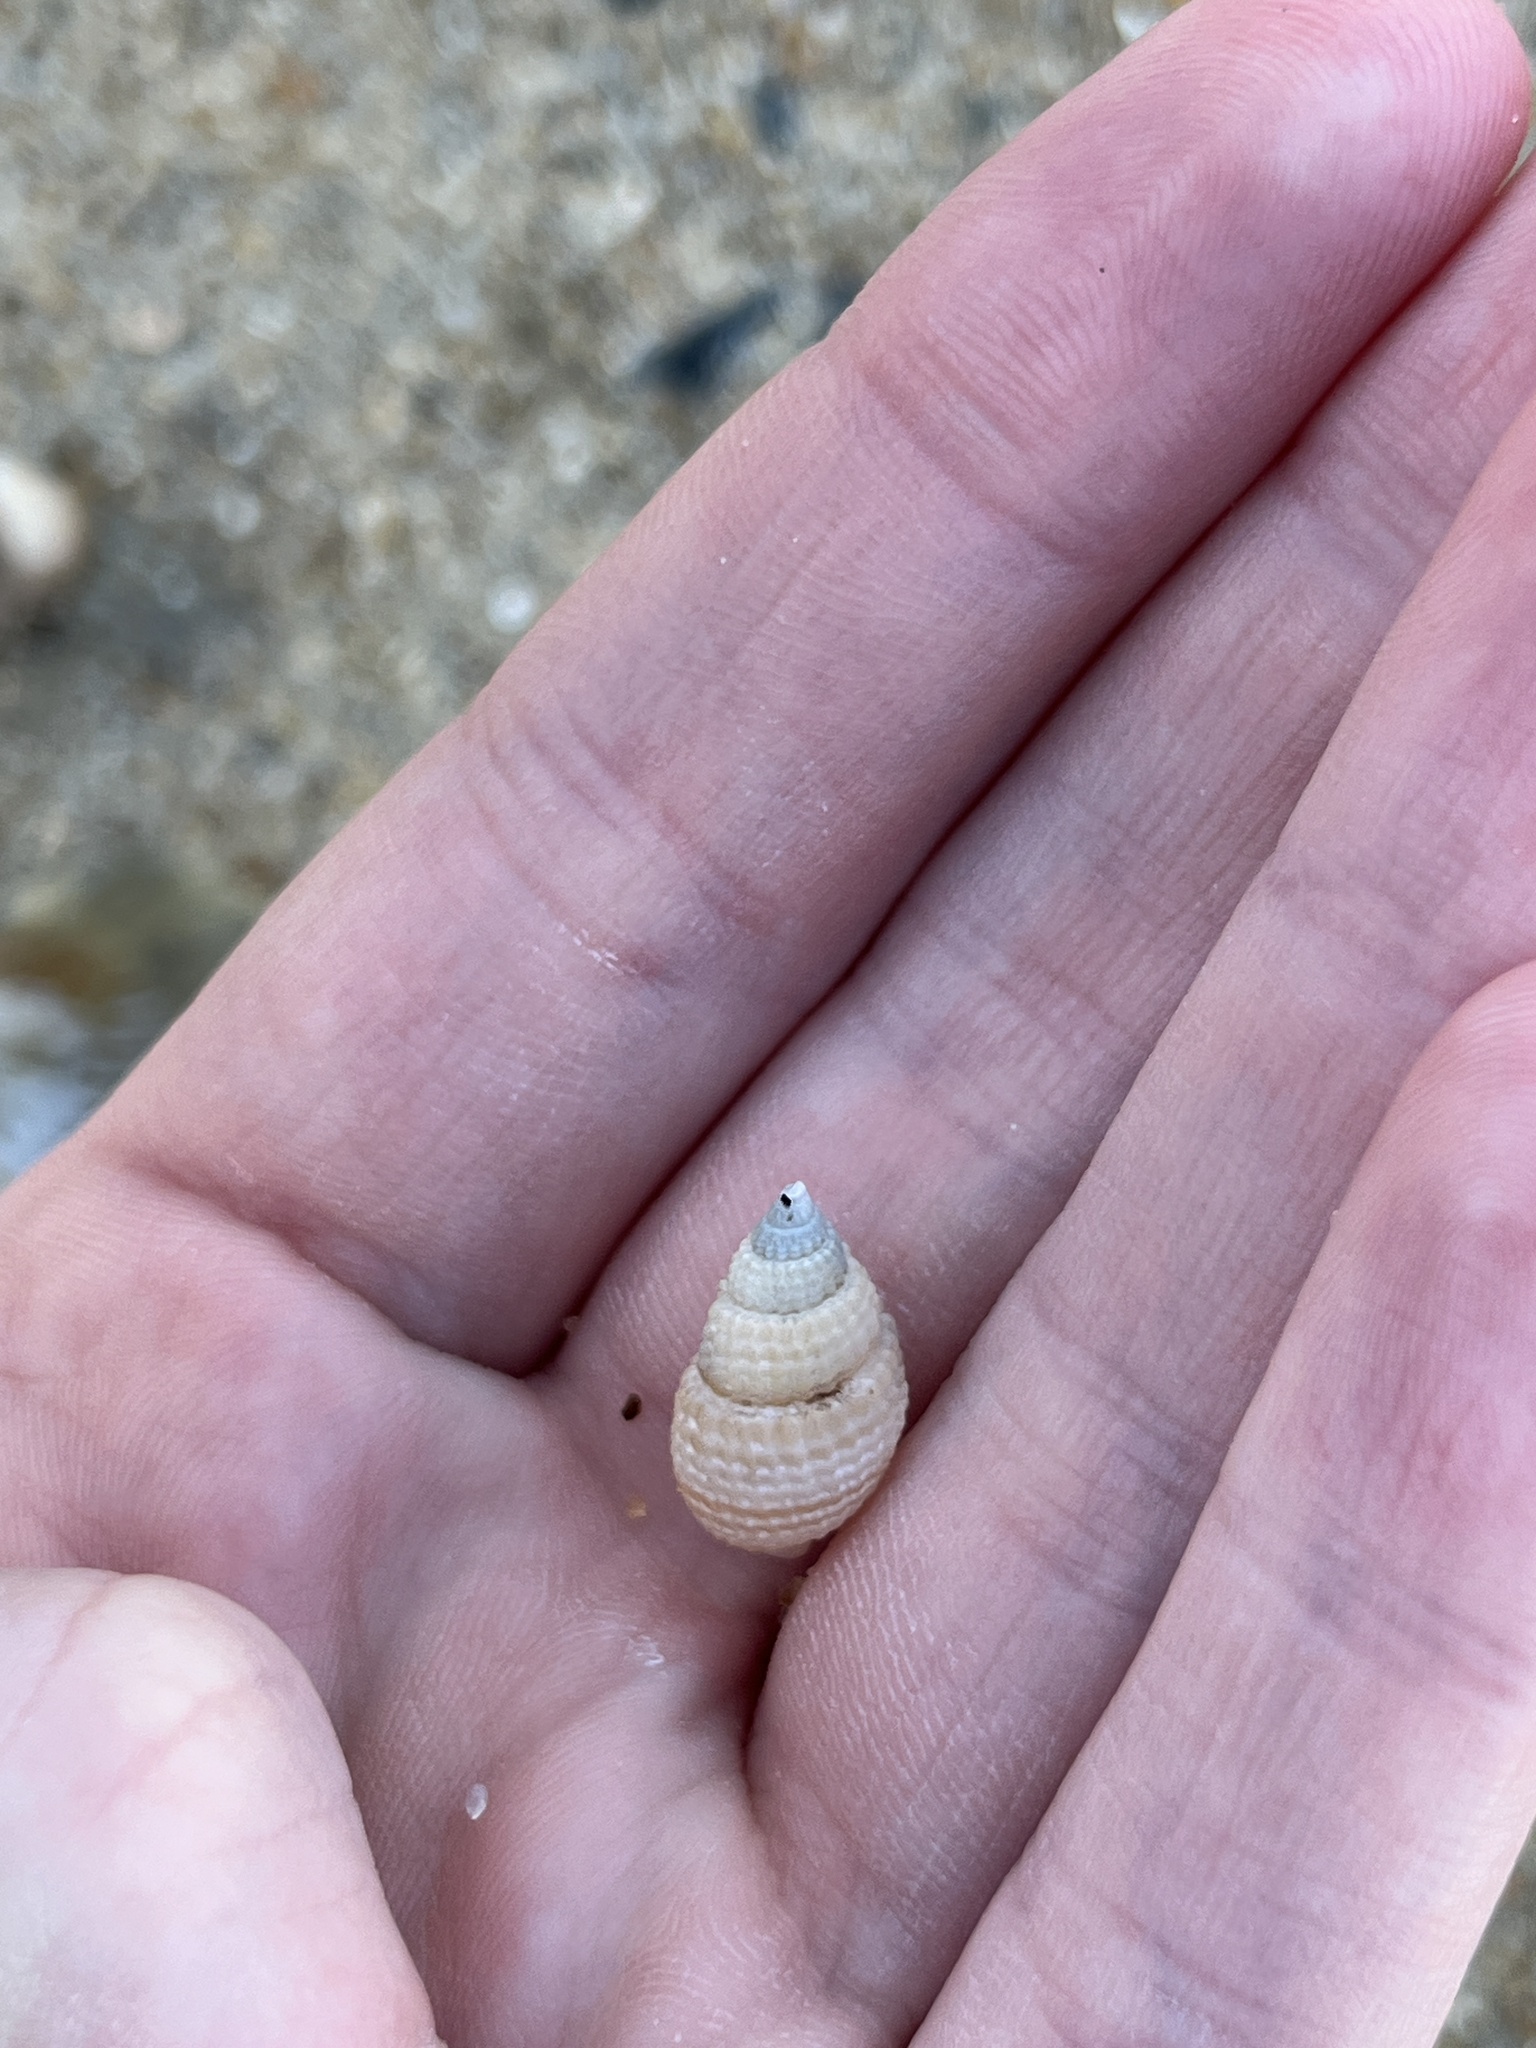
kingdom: Animalia
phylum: Mollusca
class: Gastropoda
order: Neogastropoda
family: Nassariidae
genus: Ilyanassa
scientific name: Ilyanassa trivittata
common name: Three-line mudsnail
